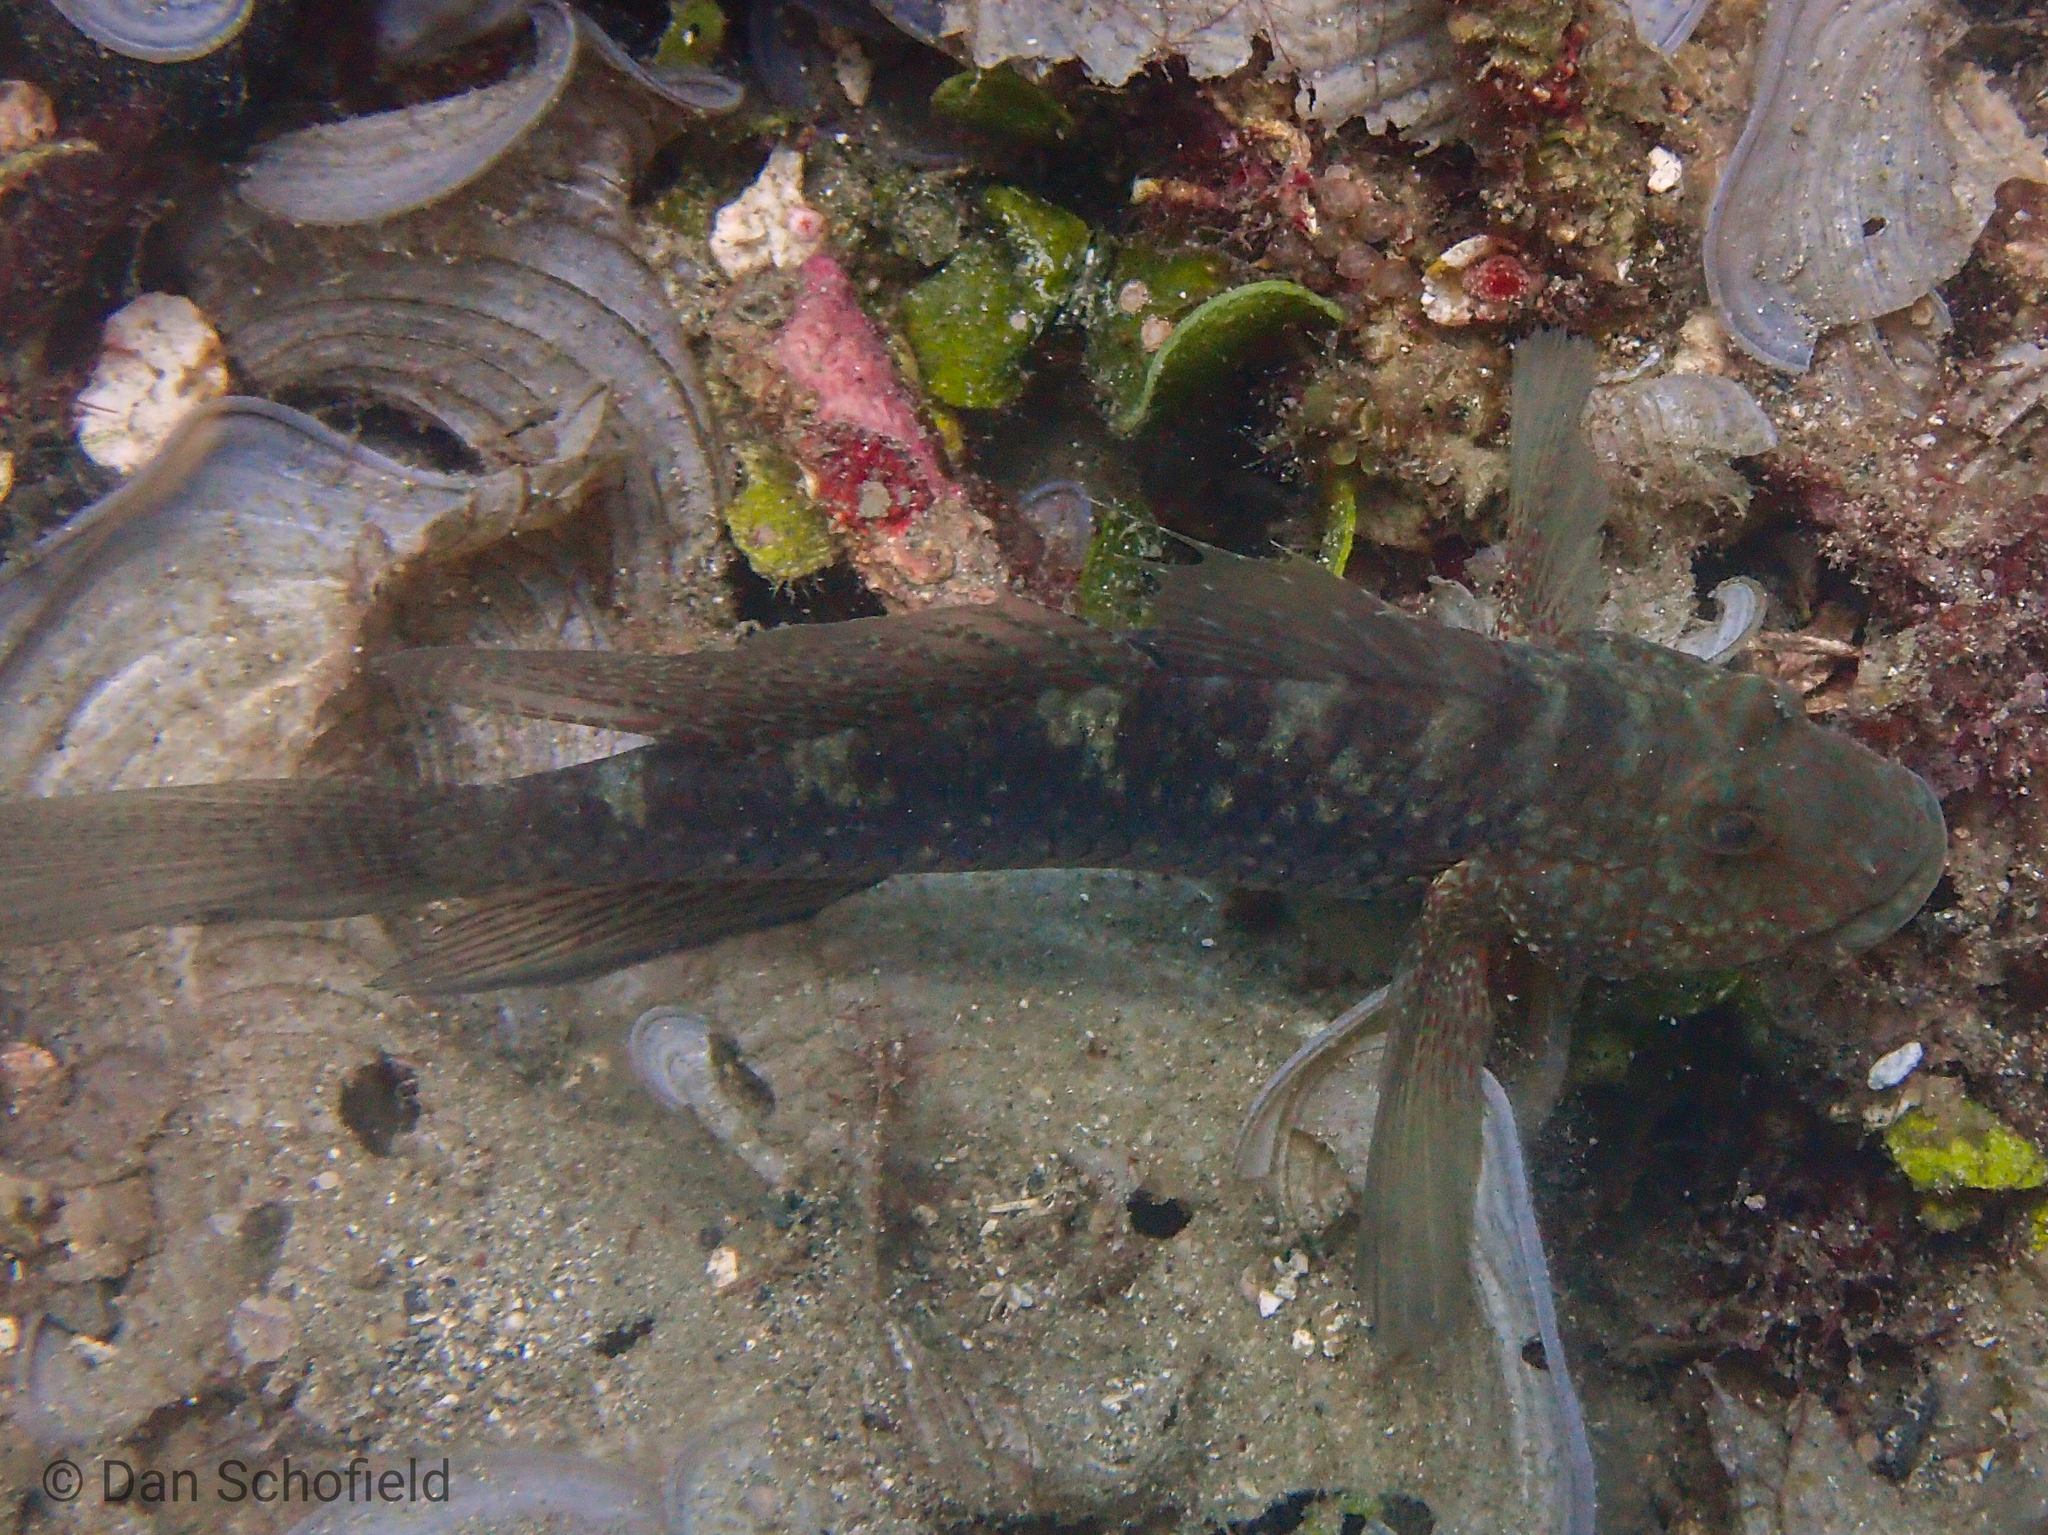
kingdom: Animalia
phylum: Chordata
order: Perciformes
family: Gobiidae
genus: Exyrias
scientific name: Exyrias belissimus
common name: Mud reef-goby
